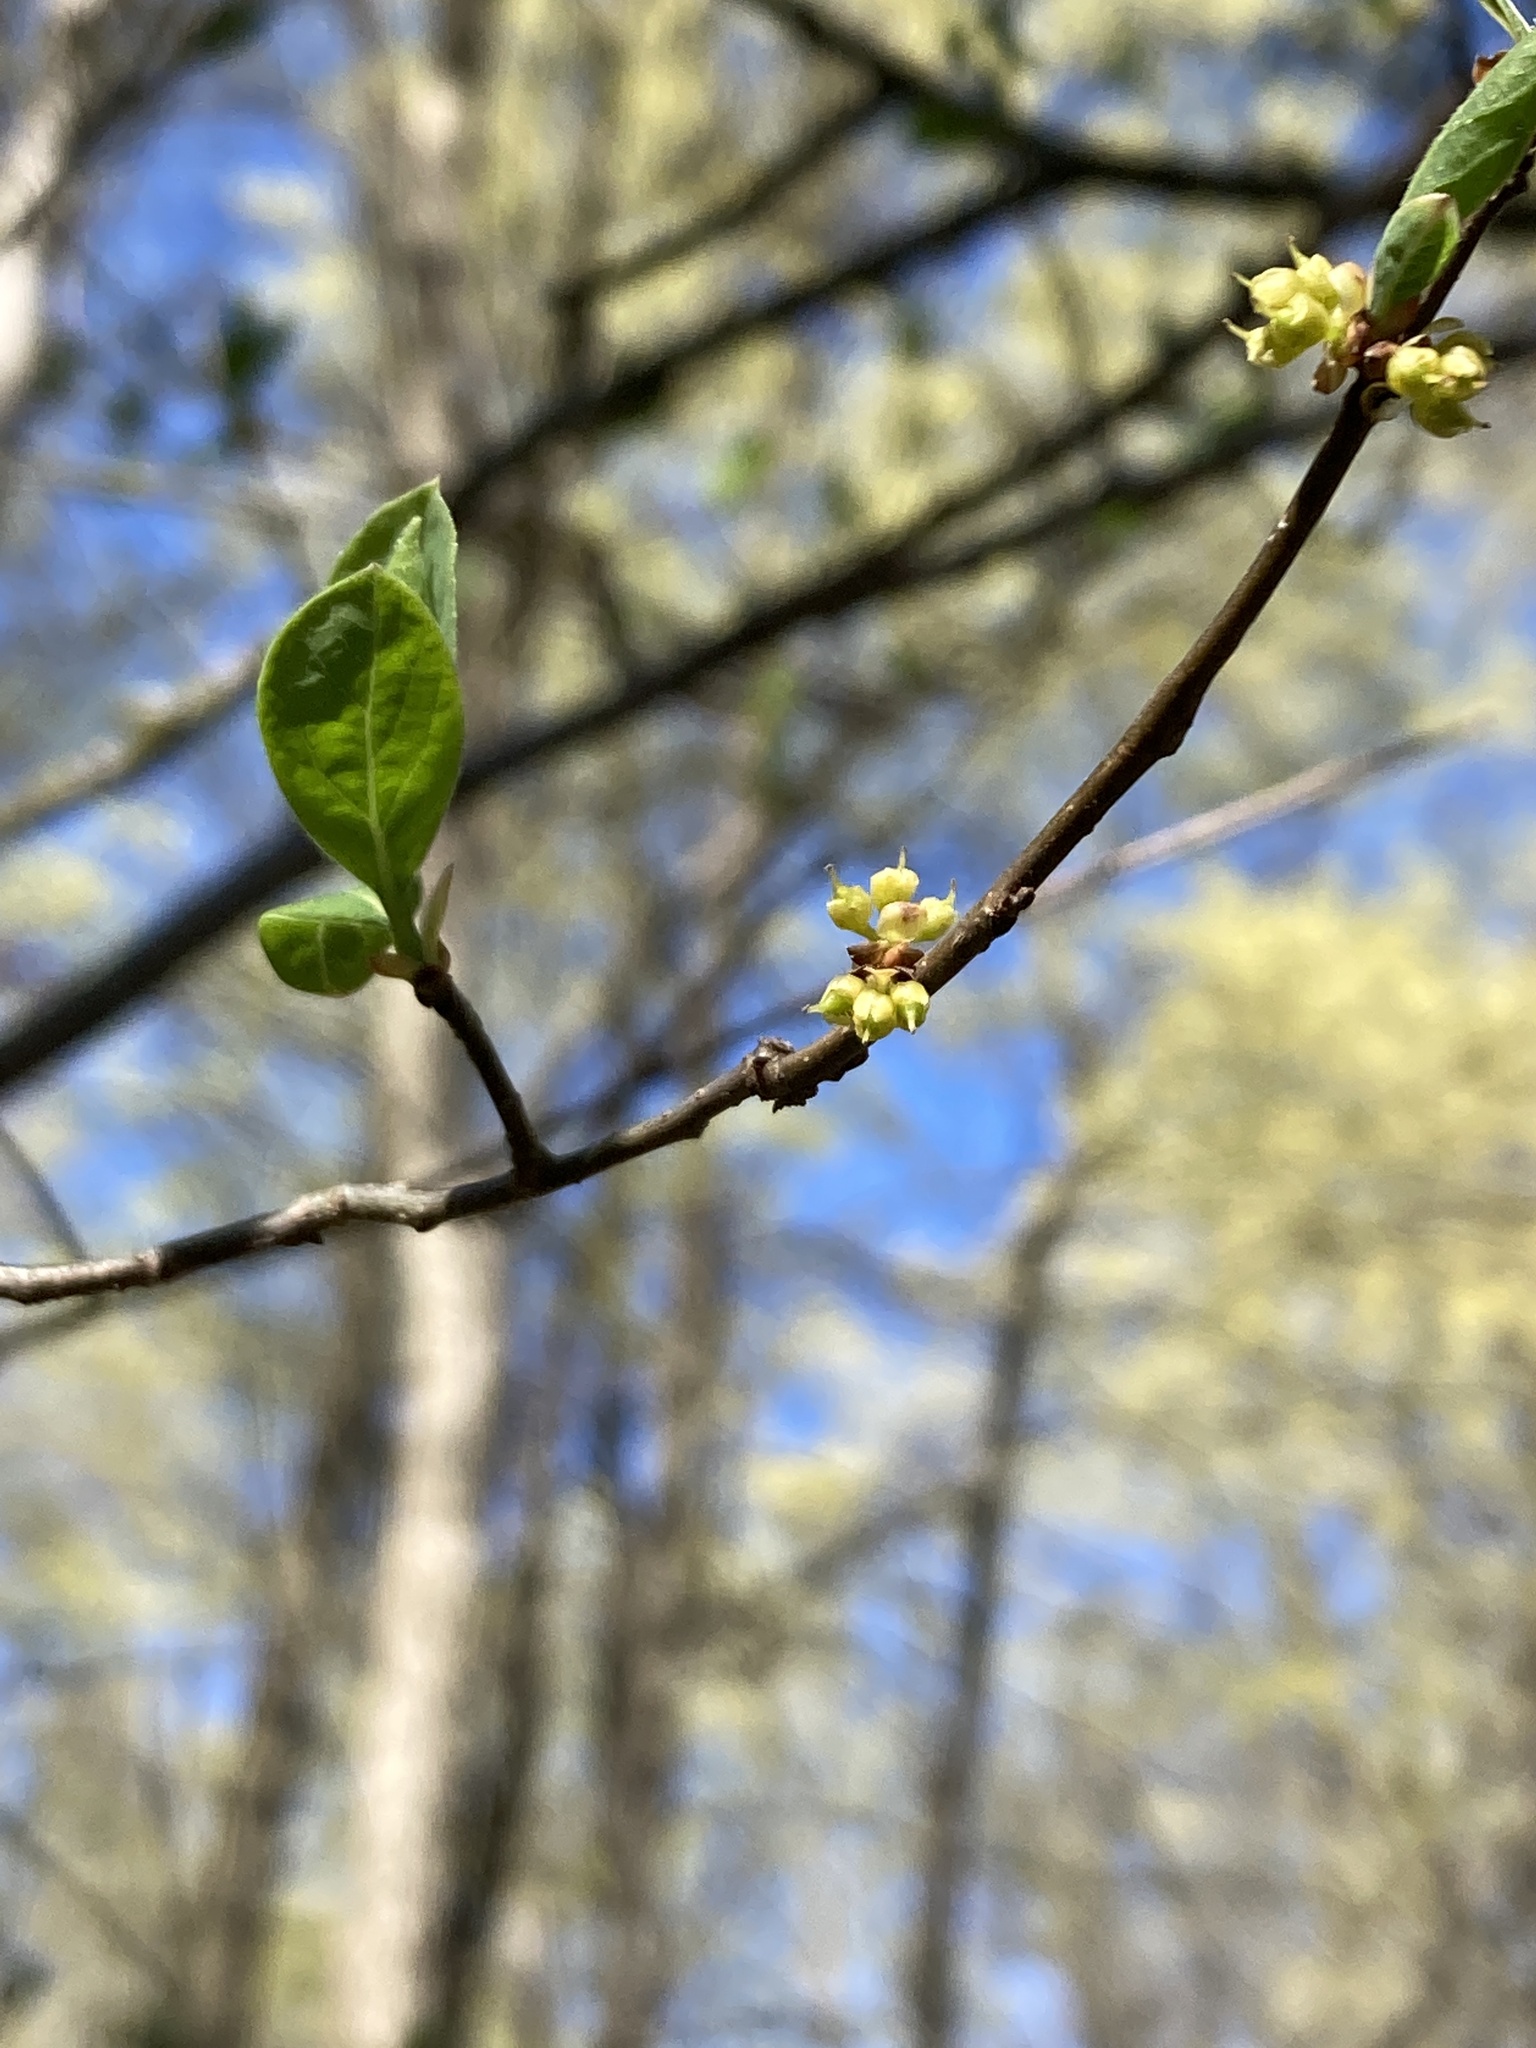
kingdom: Plantae
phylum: Tracheophyta
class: Magnoliopsida
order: Laurales
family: Lauraceae
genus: Lindera
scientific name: Lindera benzoin
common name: Spicebush
